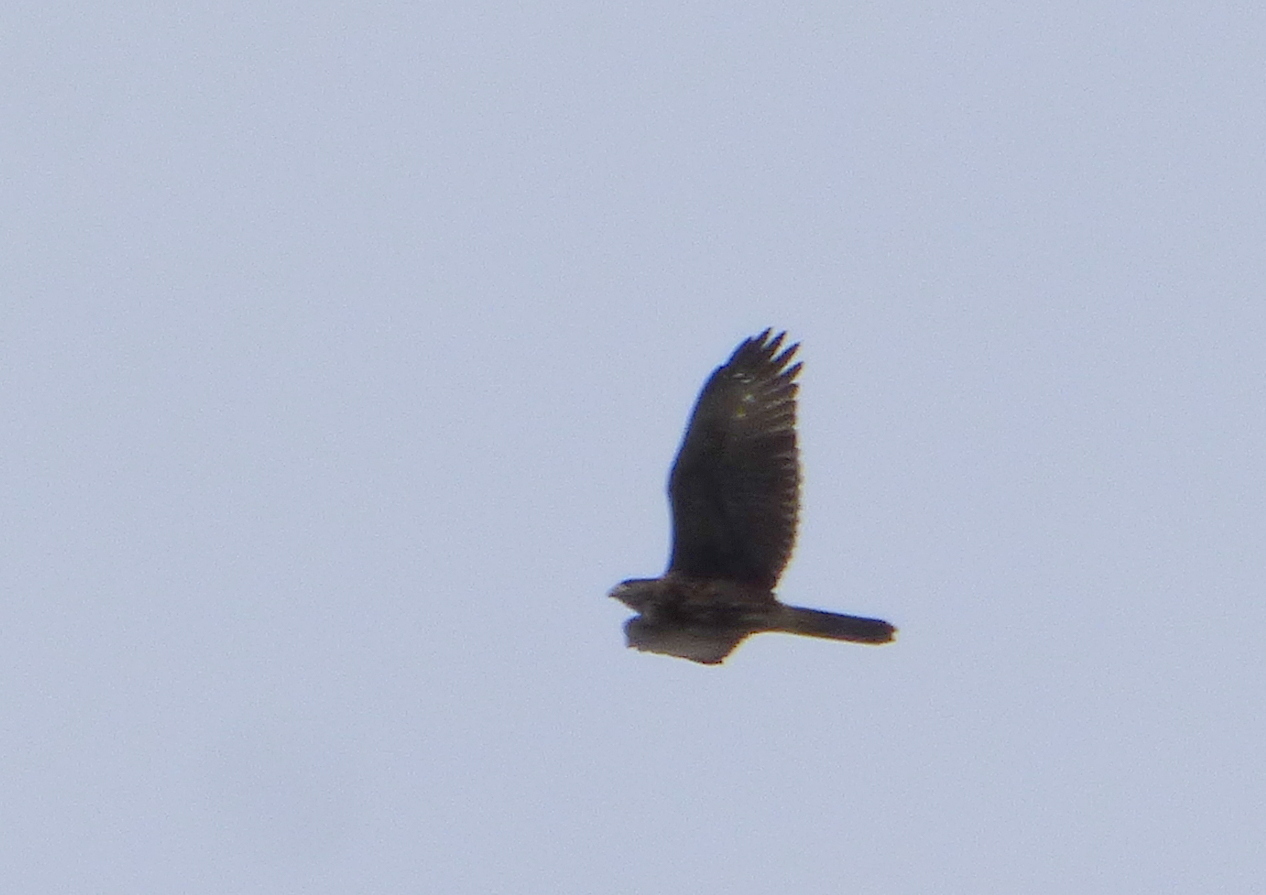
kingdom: Animalia
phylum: Chordata
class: Aves
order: Accipitriformes
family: Accipitridae
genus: Parabuteo
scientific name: Parabuteo unicinctus
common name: Harris's hawk
